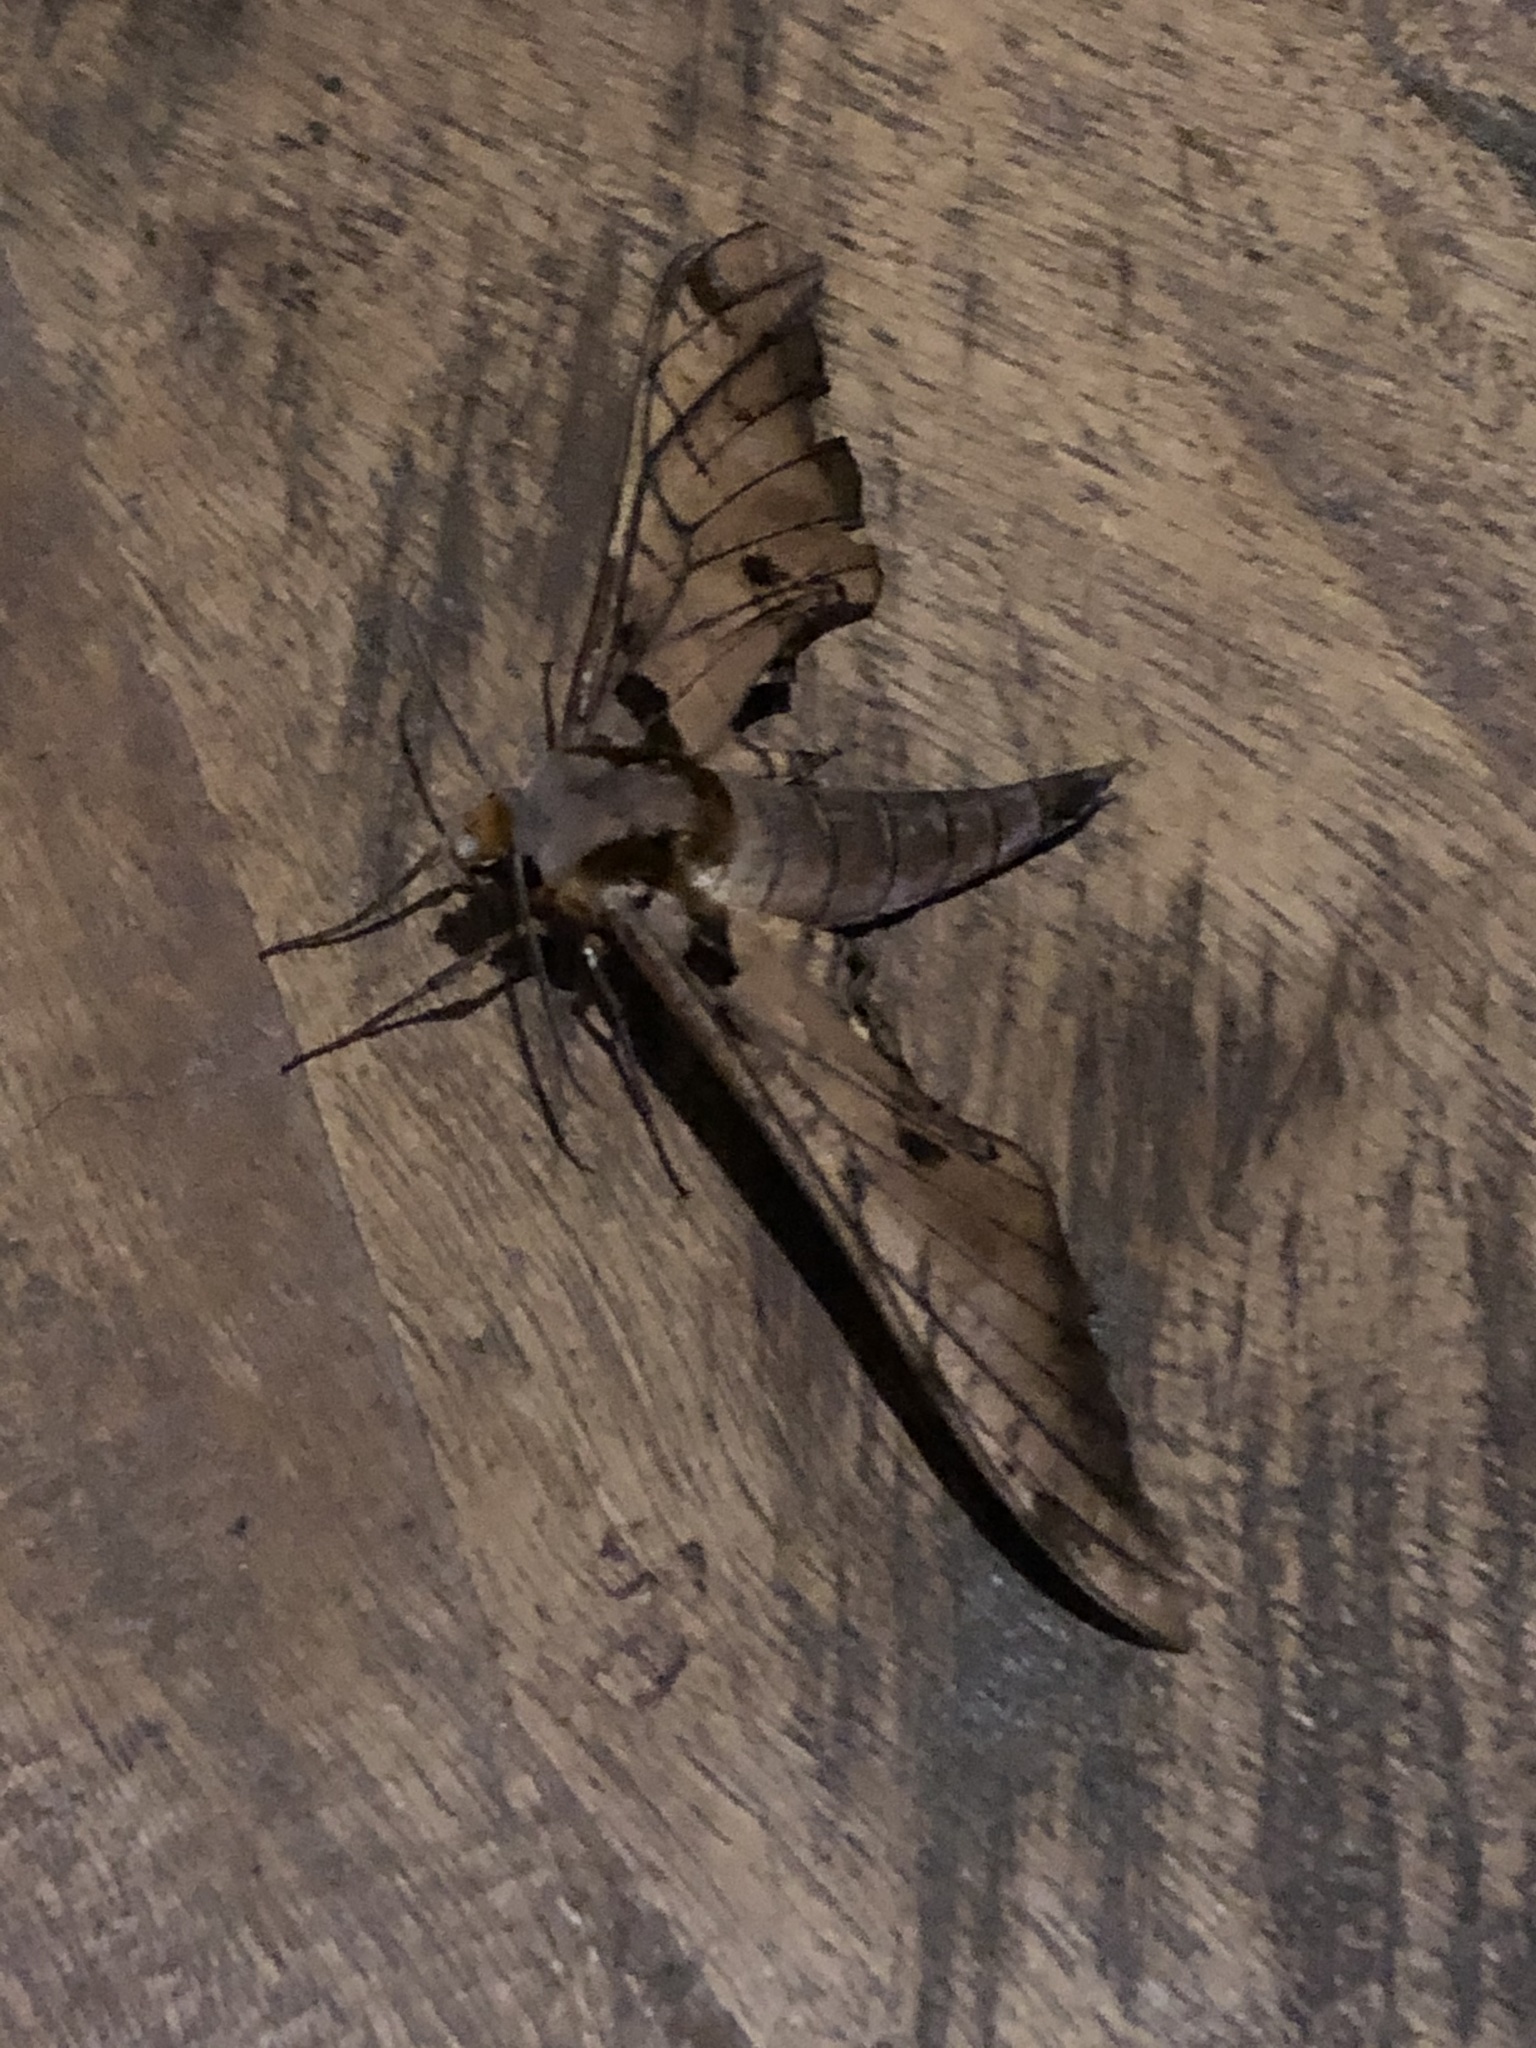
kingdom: Animalia
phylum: Arthropoda
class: Insecta
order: Lepidoptera
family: Sphingidae
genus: Adhemarius
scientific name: Adhemarius tigrina
